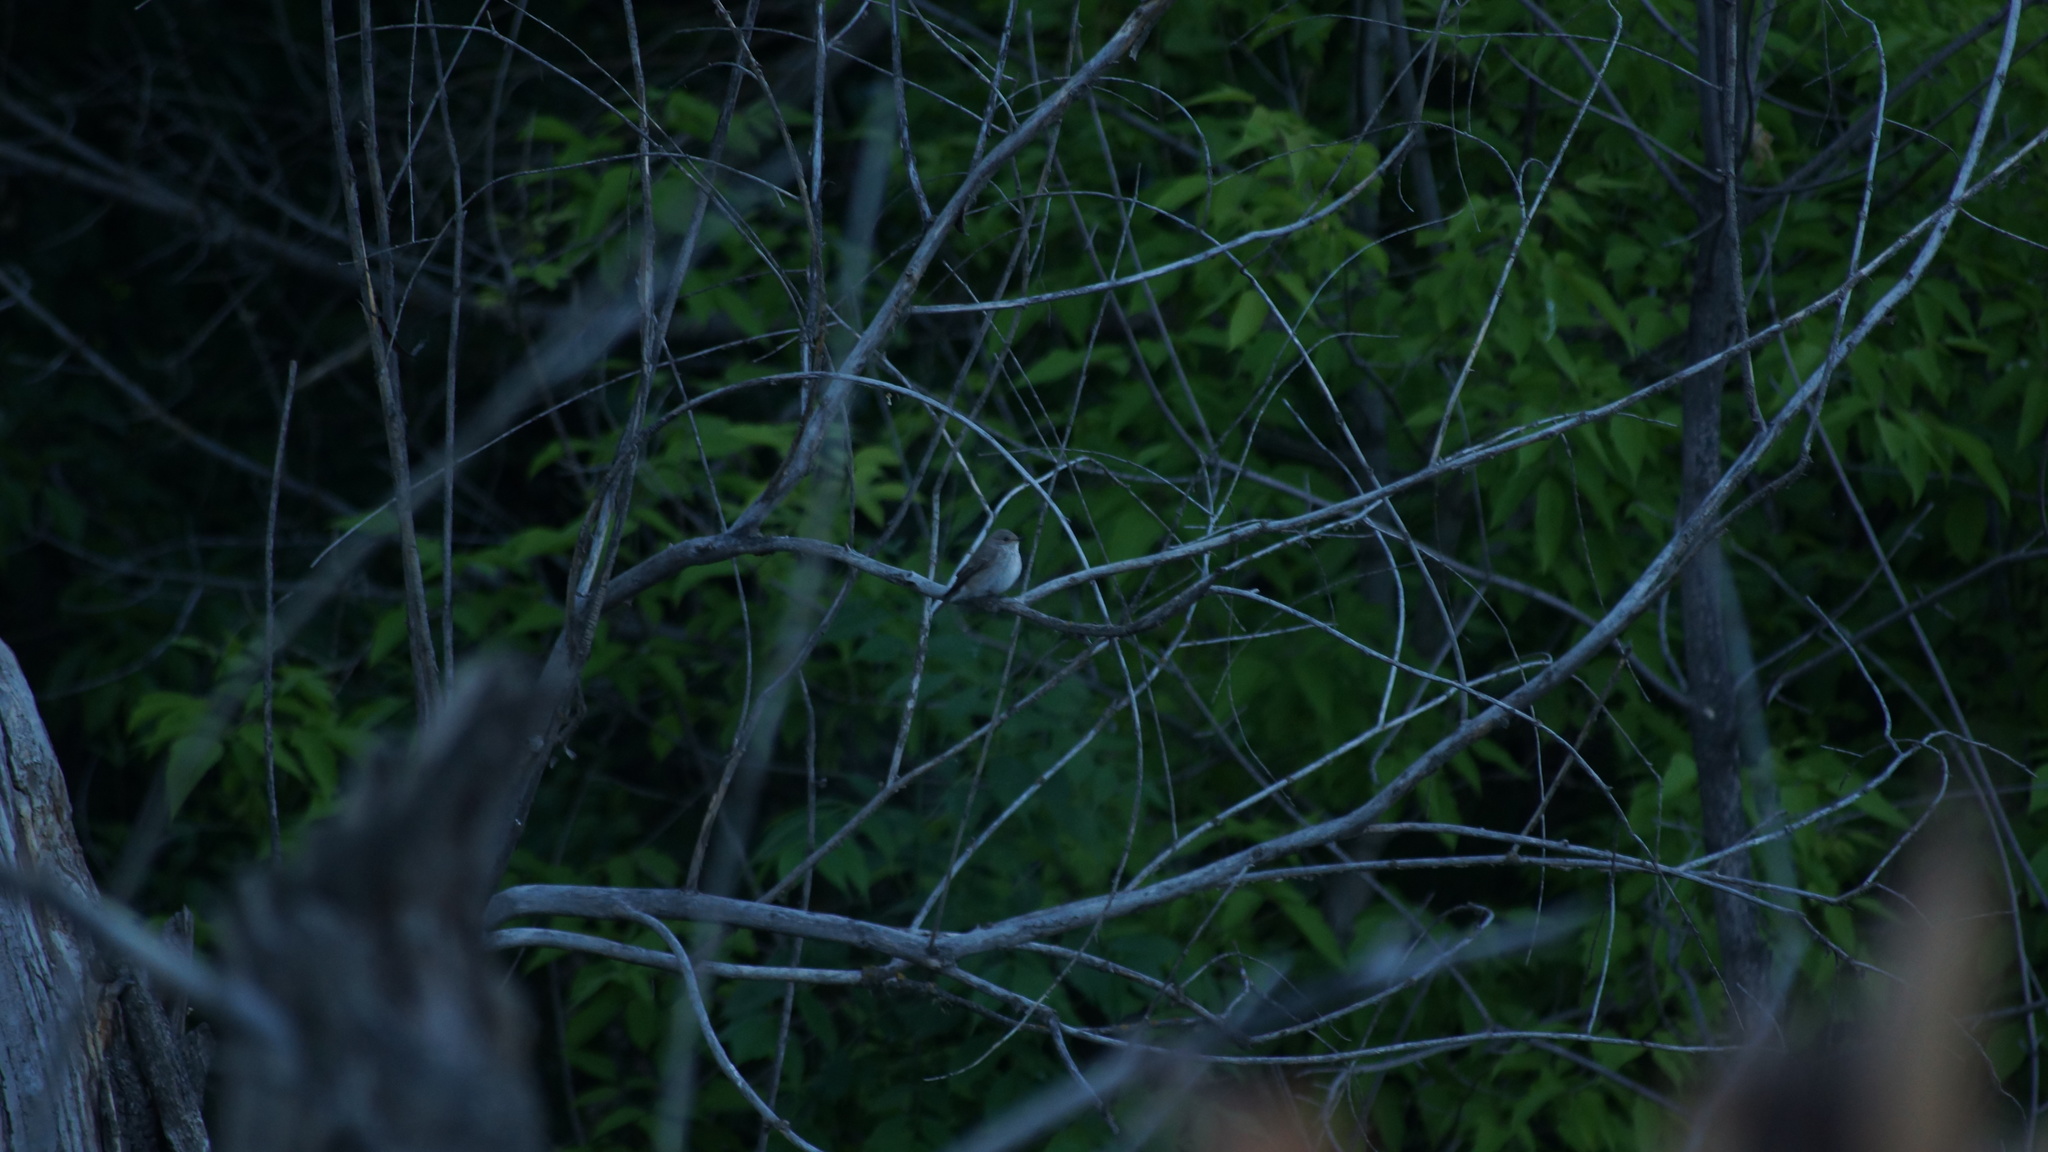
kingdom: Animalia
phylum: Chordata
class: Aves
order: Passeriformes
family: Muscicapidae
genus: Muscicapa
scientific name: Muscicapa striata
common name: Spotted flycatcher
